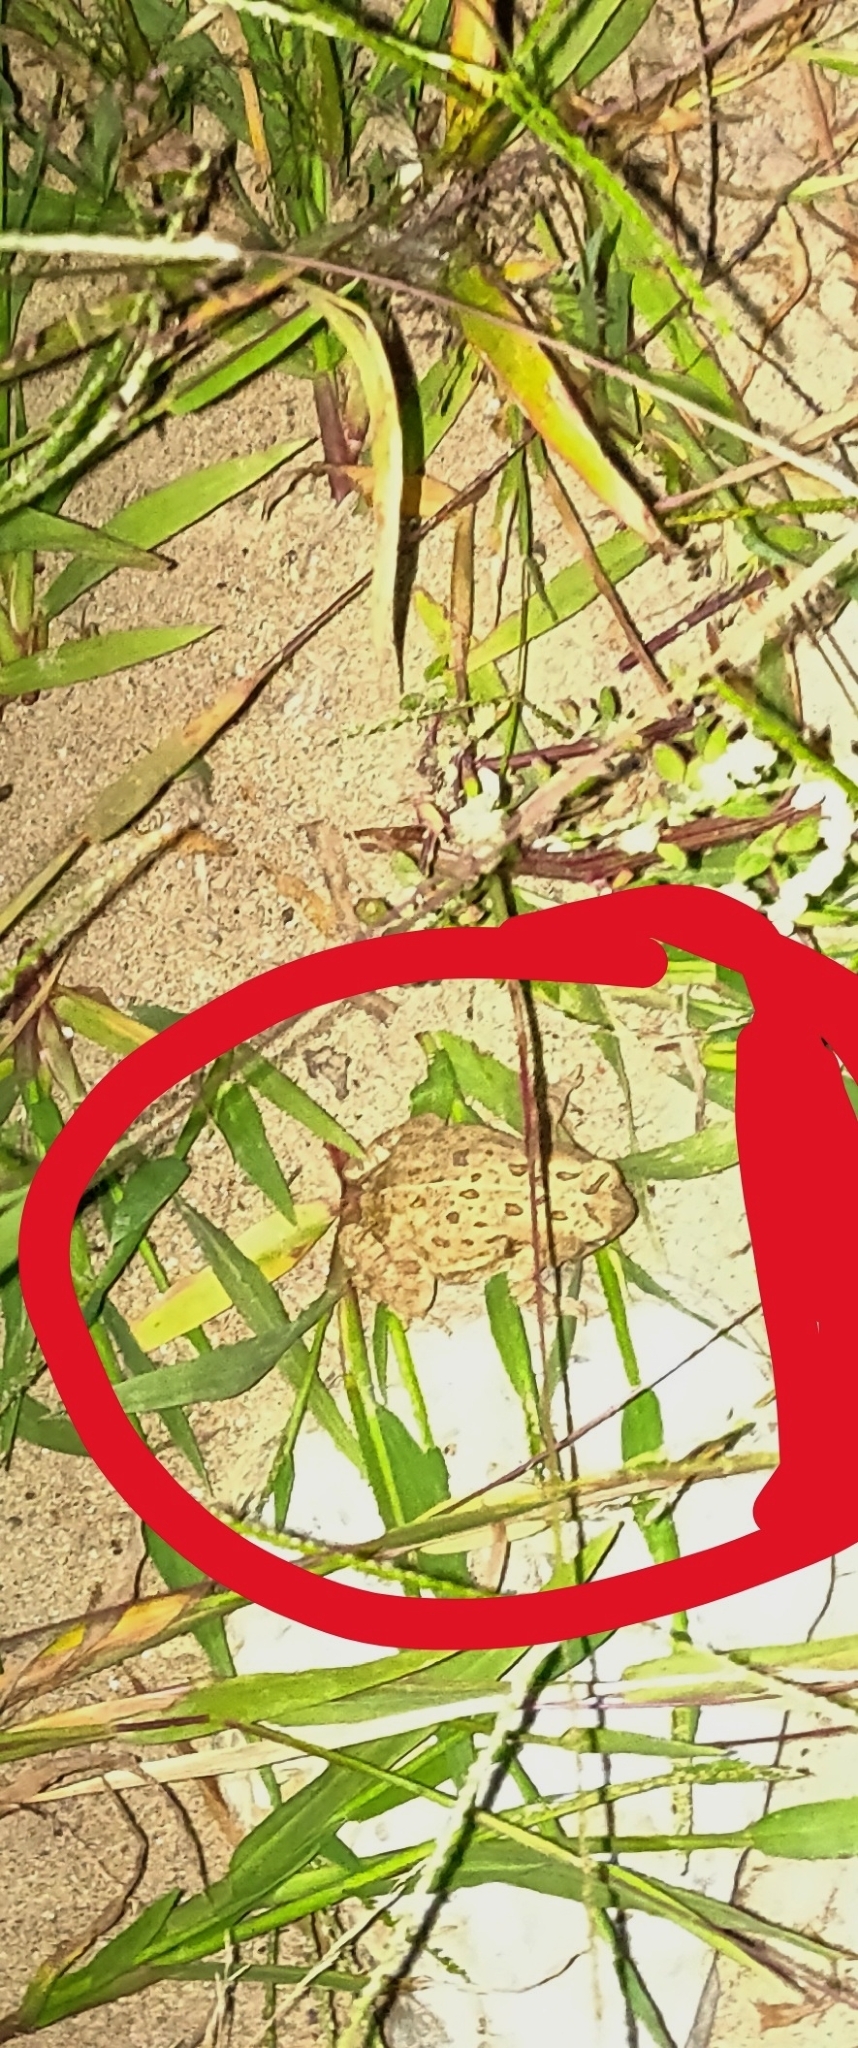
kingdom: Animalia
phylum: Chordata
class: Amphibia
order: Anura
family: Bufonidae
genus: Anaxyrus
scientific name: Anaxyrus fowleri
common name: Fowler's toad
